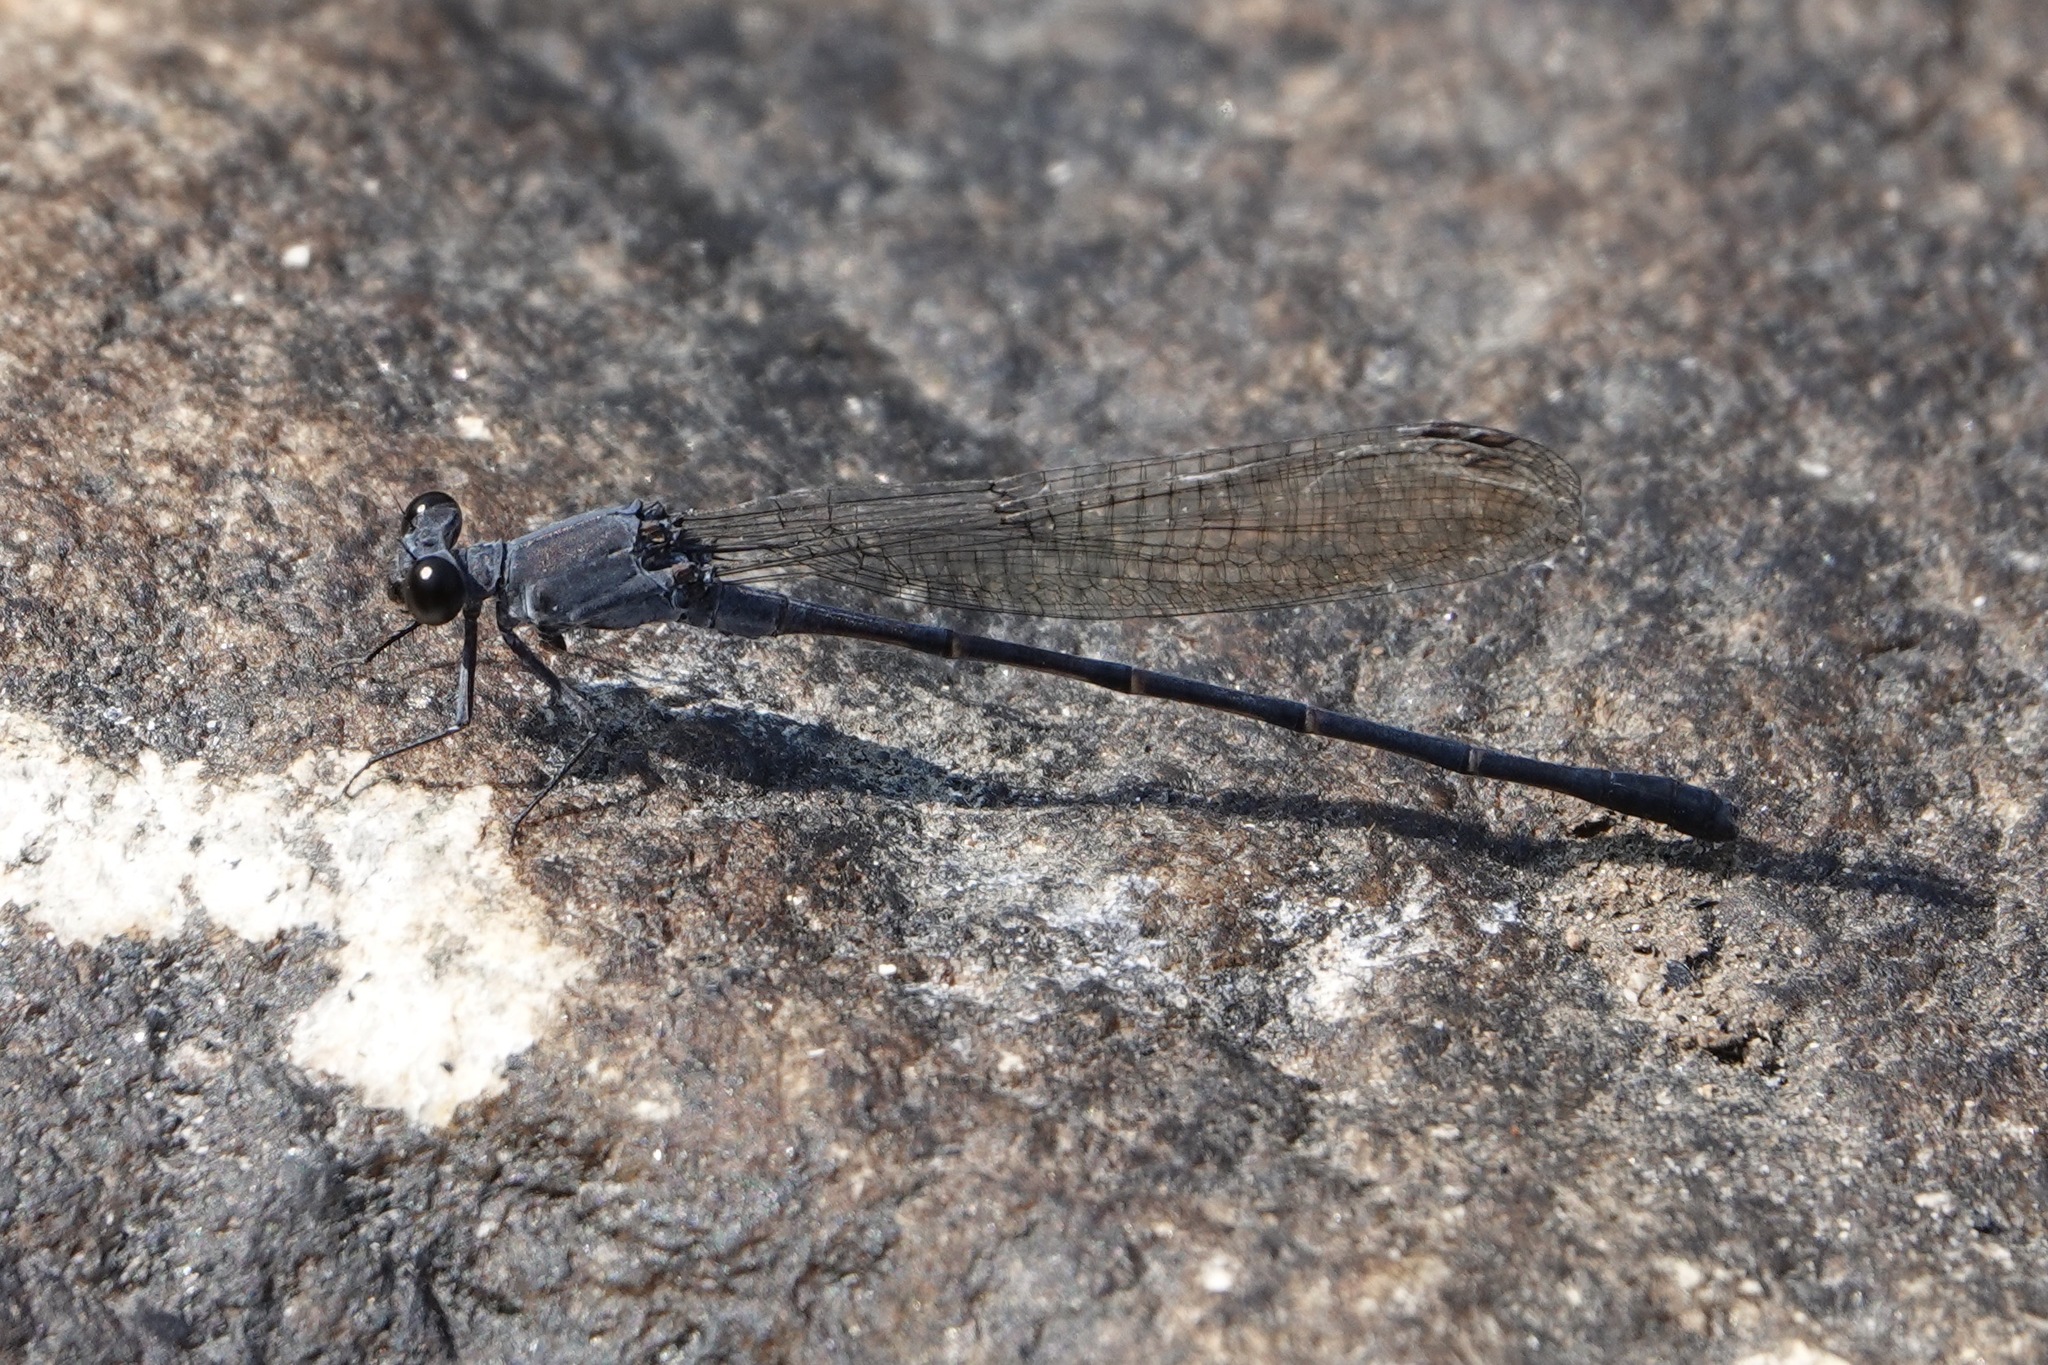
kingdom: Animalia
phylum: Arthropoda
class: Insecta
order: Odonata
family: Coenagrionidae
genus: Argia
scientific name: Argia lugens
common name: Sooty dancer
